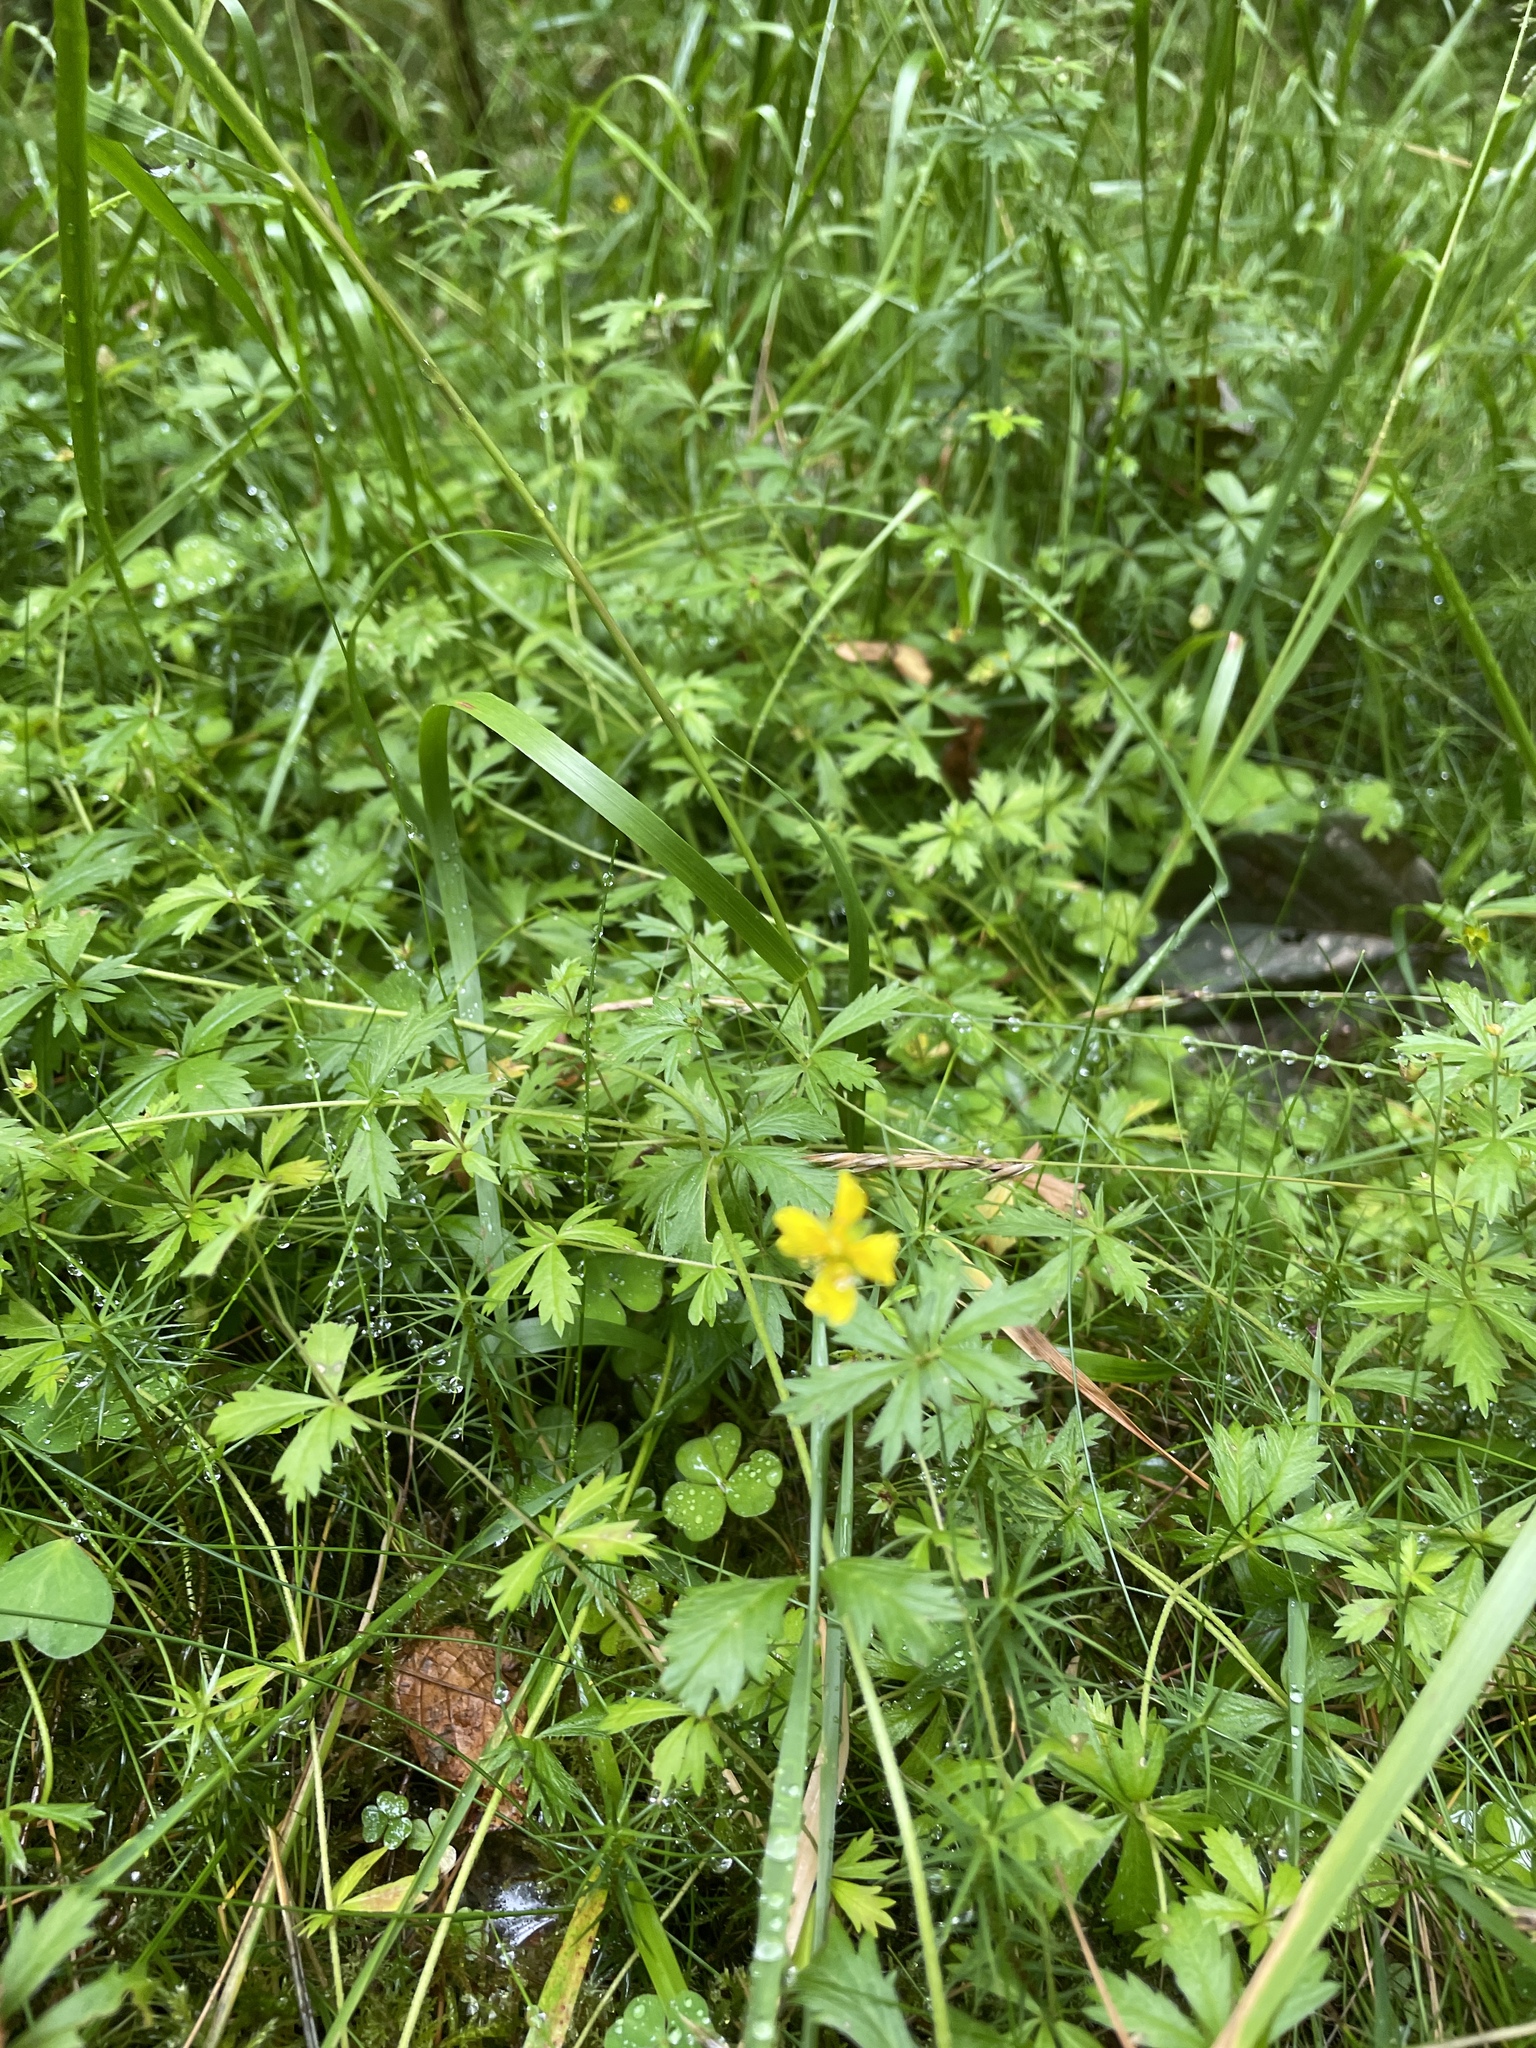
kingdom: Plantae
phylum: Tracheophyta
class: Magnoliopsida
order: Rosales
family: Rosaceae
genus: Potentilla
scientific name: Potentilla erecta
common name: Tormentil
